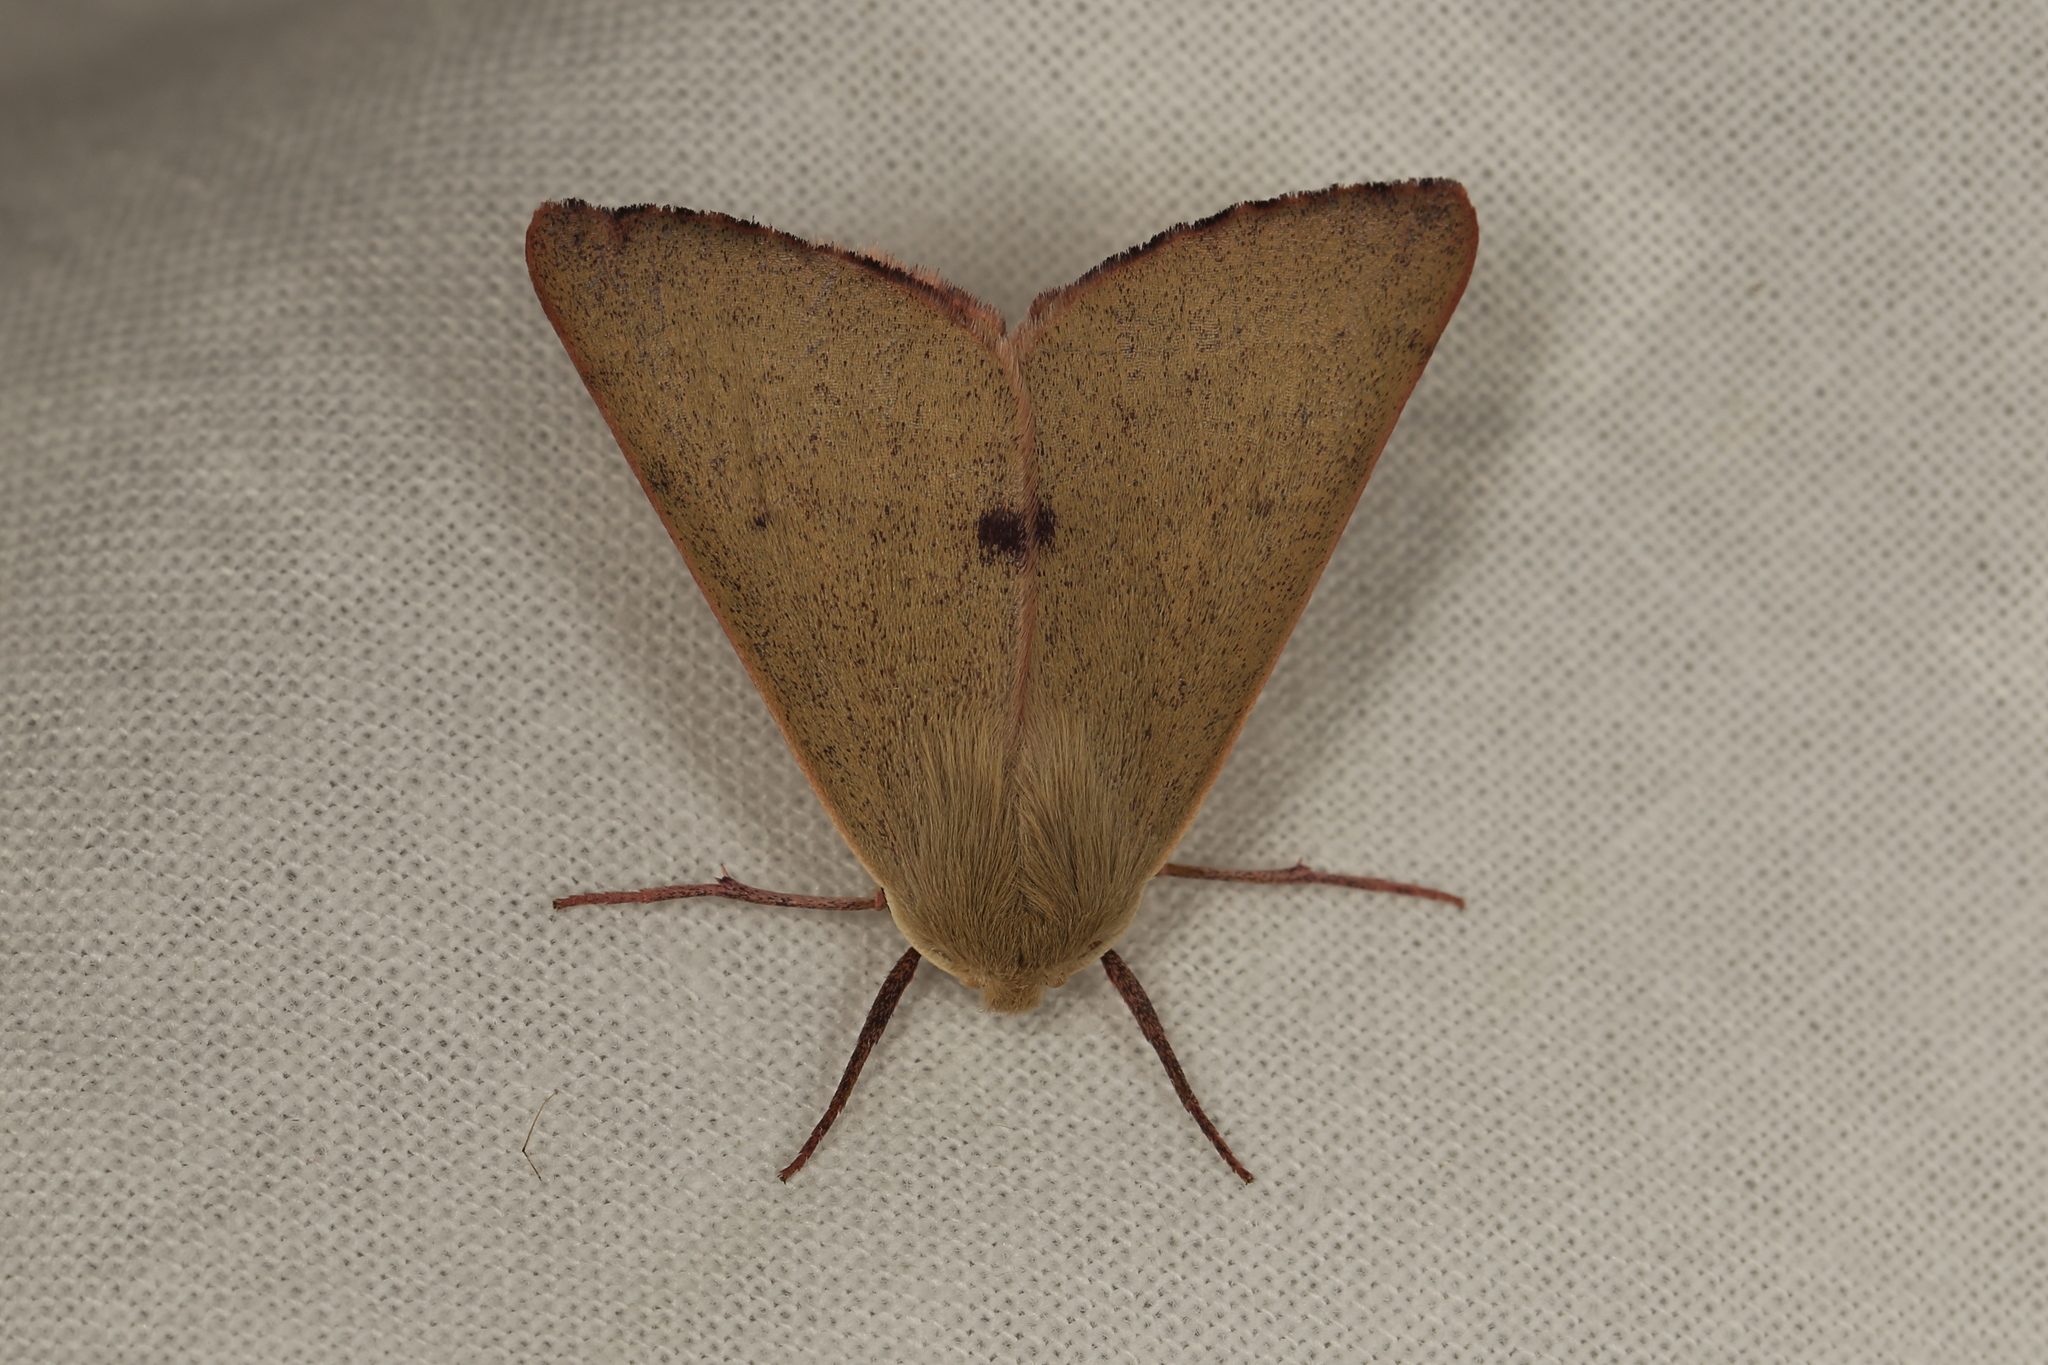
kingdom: Animalia
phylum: Arthropoda
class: Insecta
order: Lepidoptera
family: Geometridae
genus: Arhodia
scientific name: Arhodia lasiocamparia
